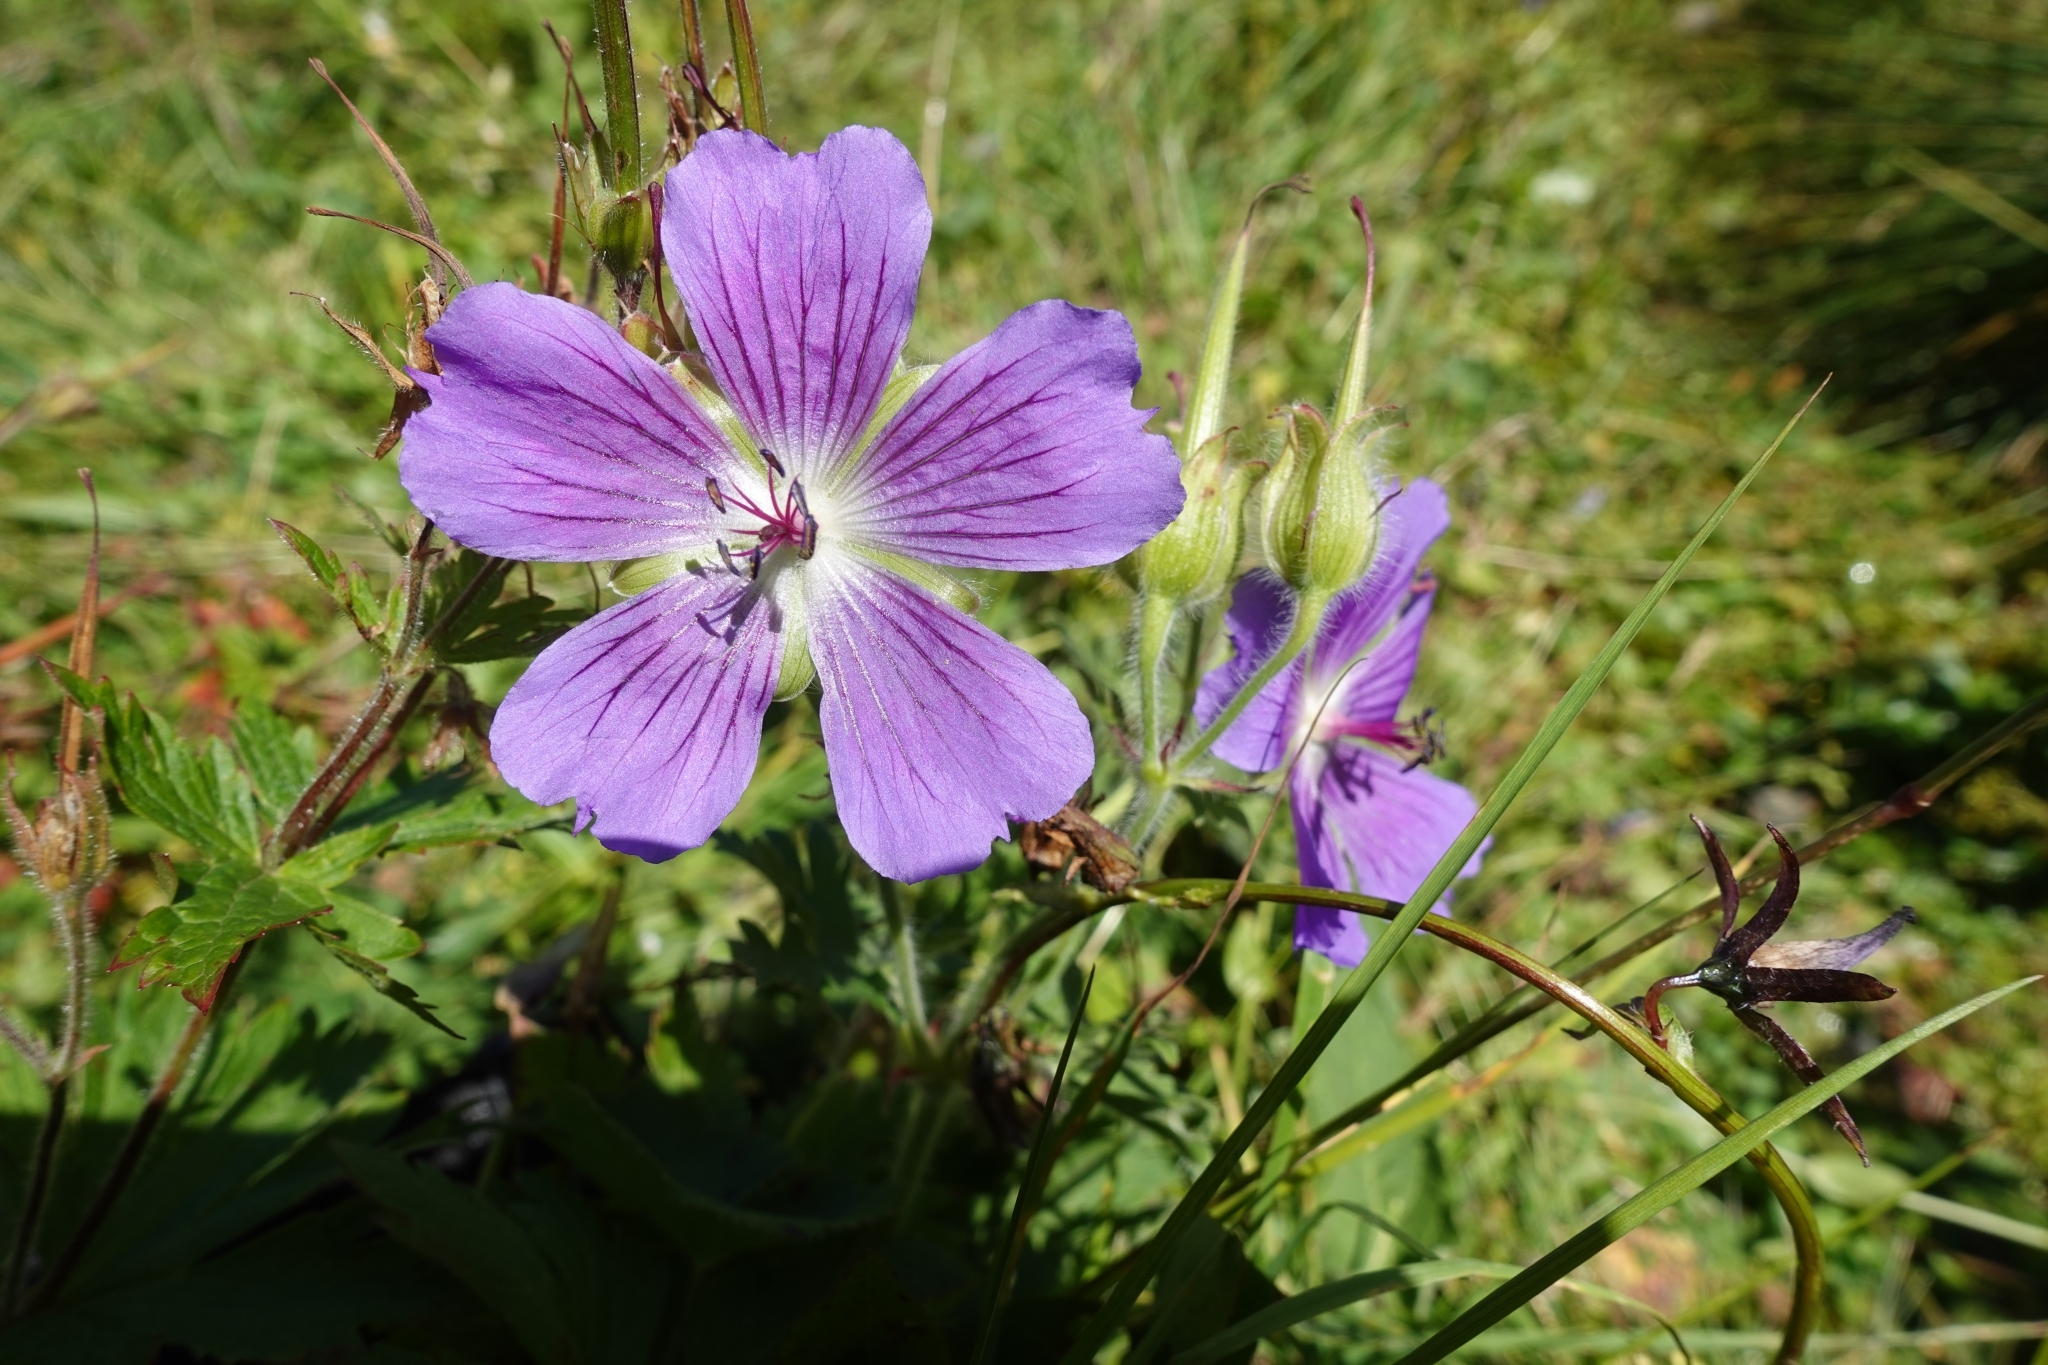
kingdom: Plantae
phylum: Tracheophyta
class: Magnoliopsida
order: Geraniales
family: Geraniaceae
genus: Geranium
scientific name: Geranium gymnocaulon
